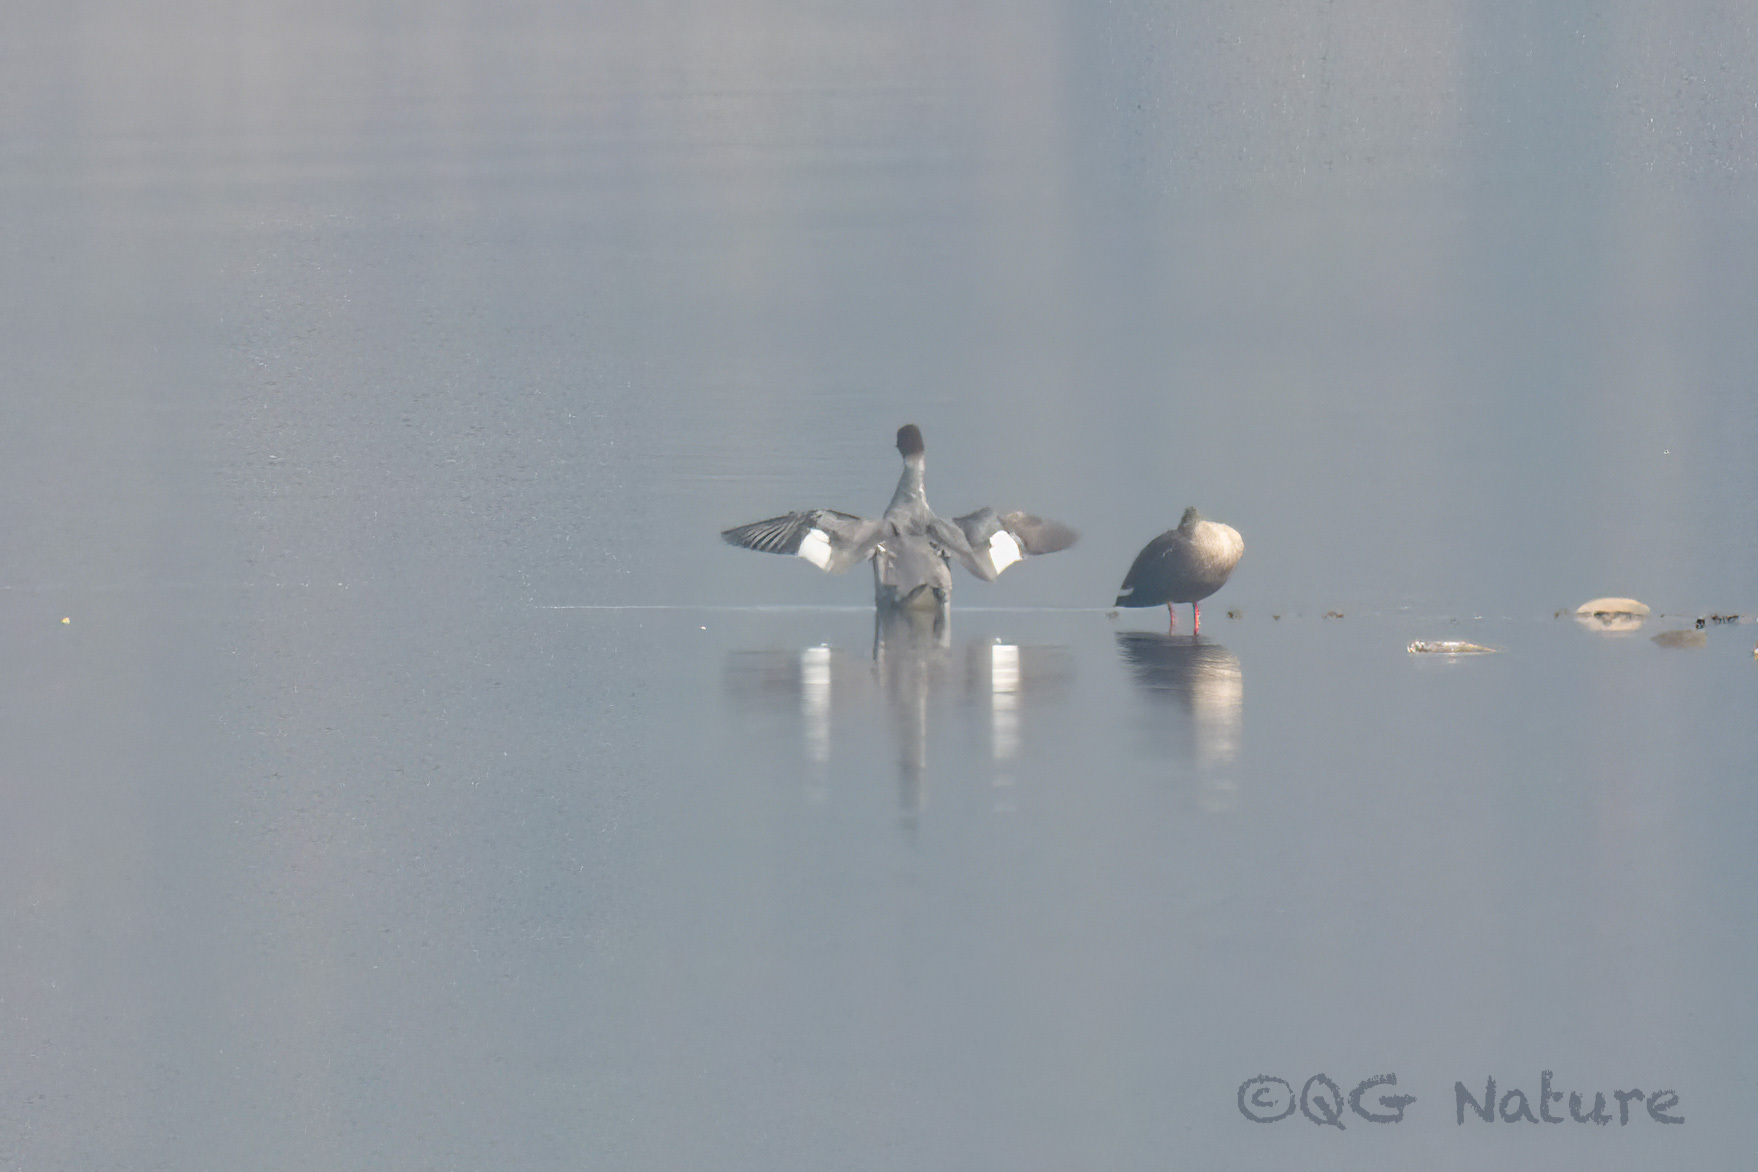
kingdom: Animalia
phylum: Chordata
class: Aves
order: Anseriformes
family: Anatidae
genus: Mergus
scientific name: Mergus merganser
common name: Common merganser
